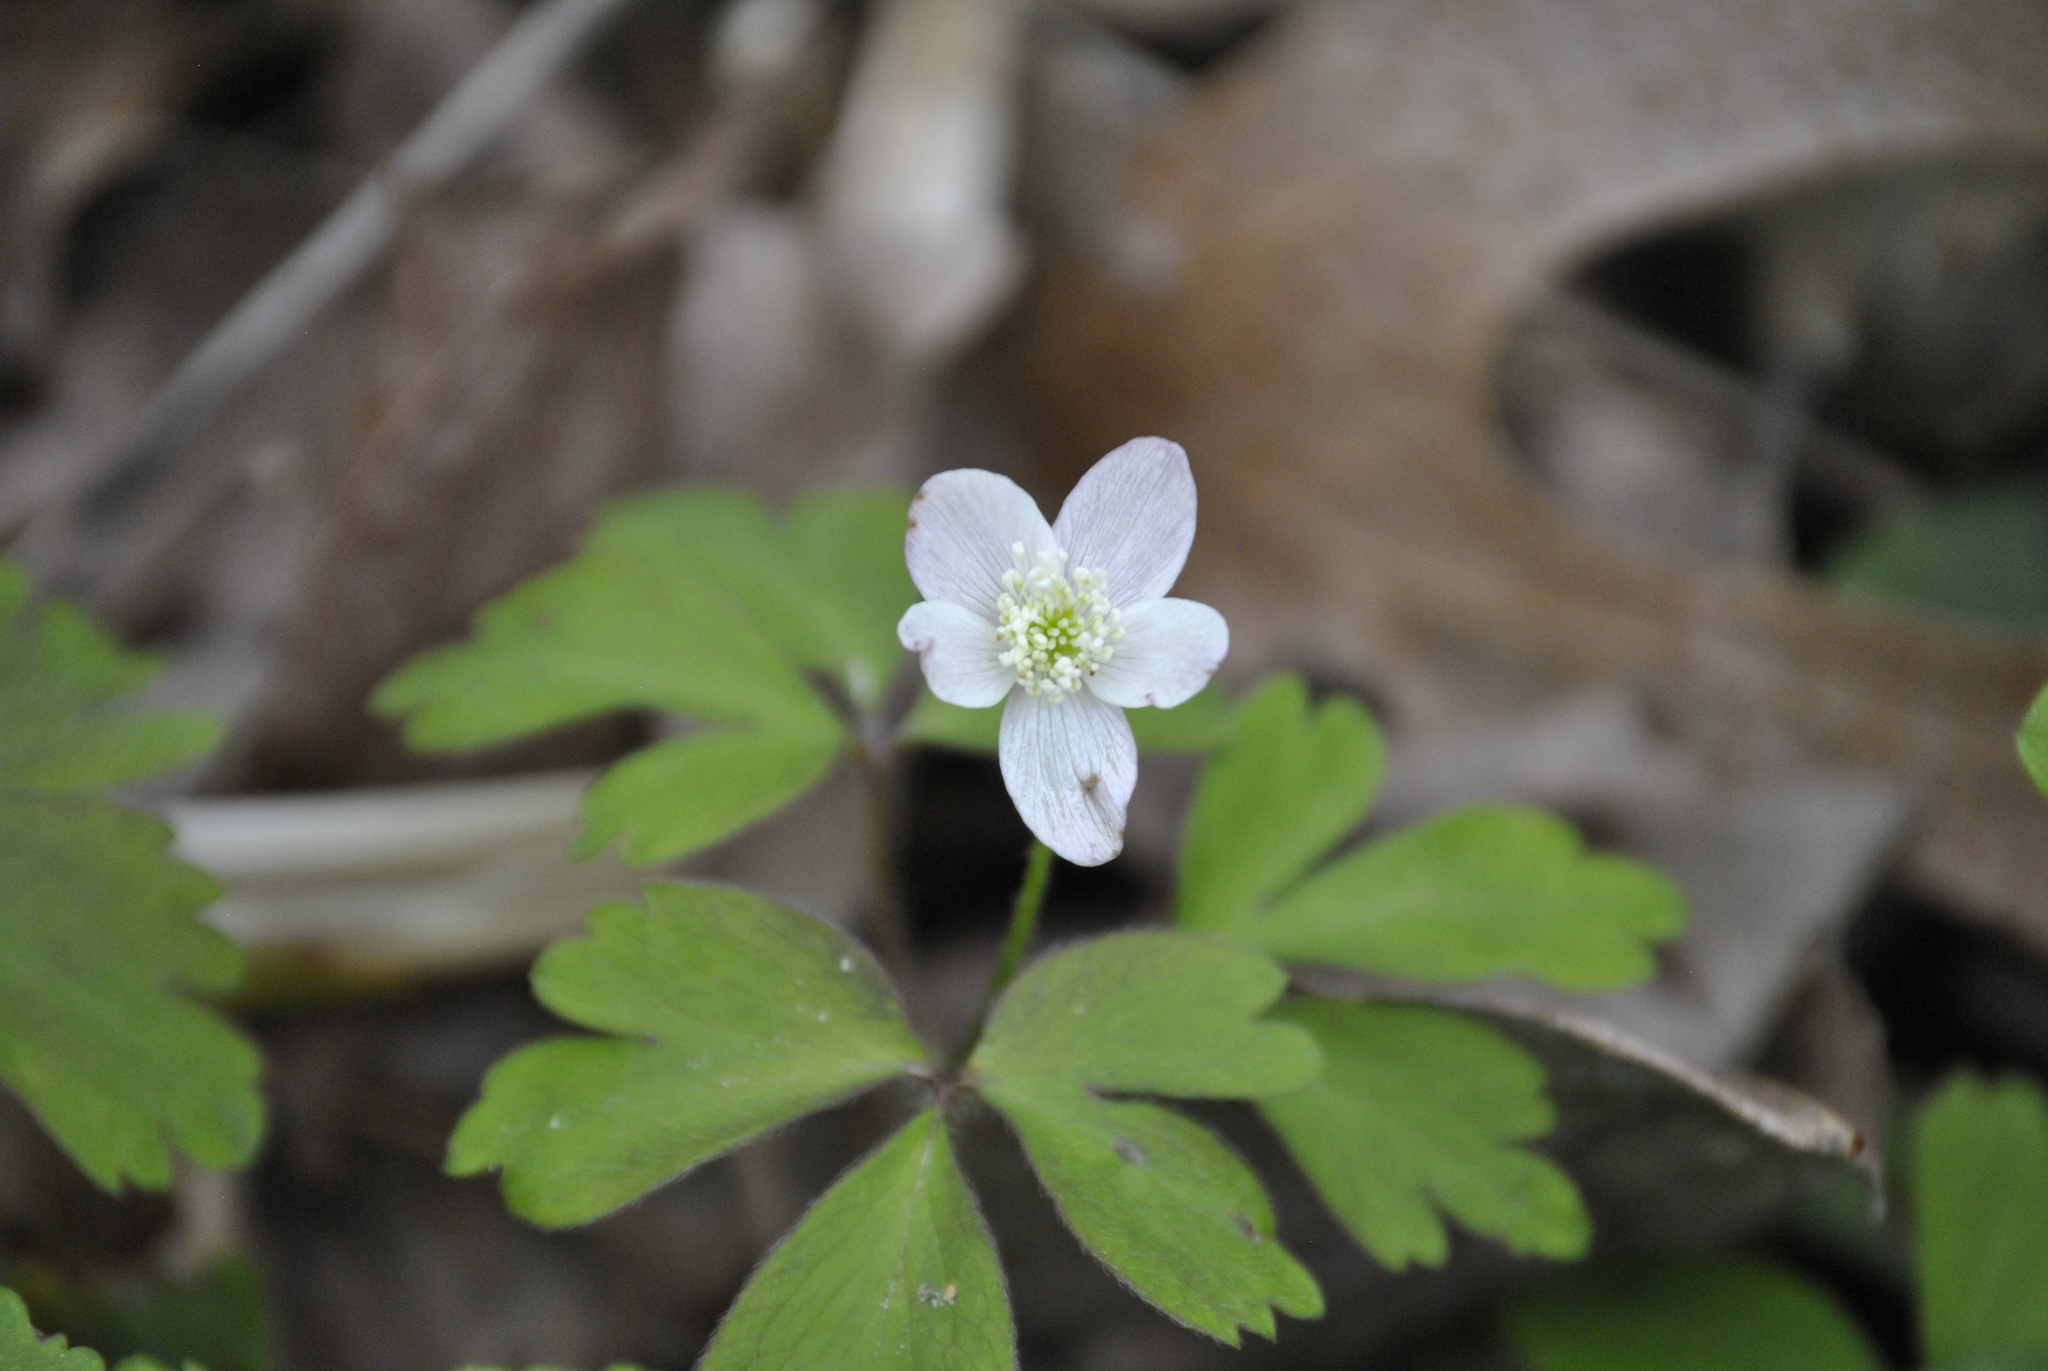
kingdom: Plantae
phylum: Tracheophyta
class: Magnoliopsida
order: Ranunculales
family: Ranunculaceae
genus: Anemone
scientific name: Anemone quinquefolia
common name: Wood anemone
